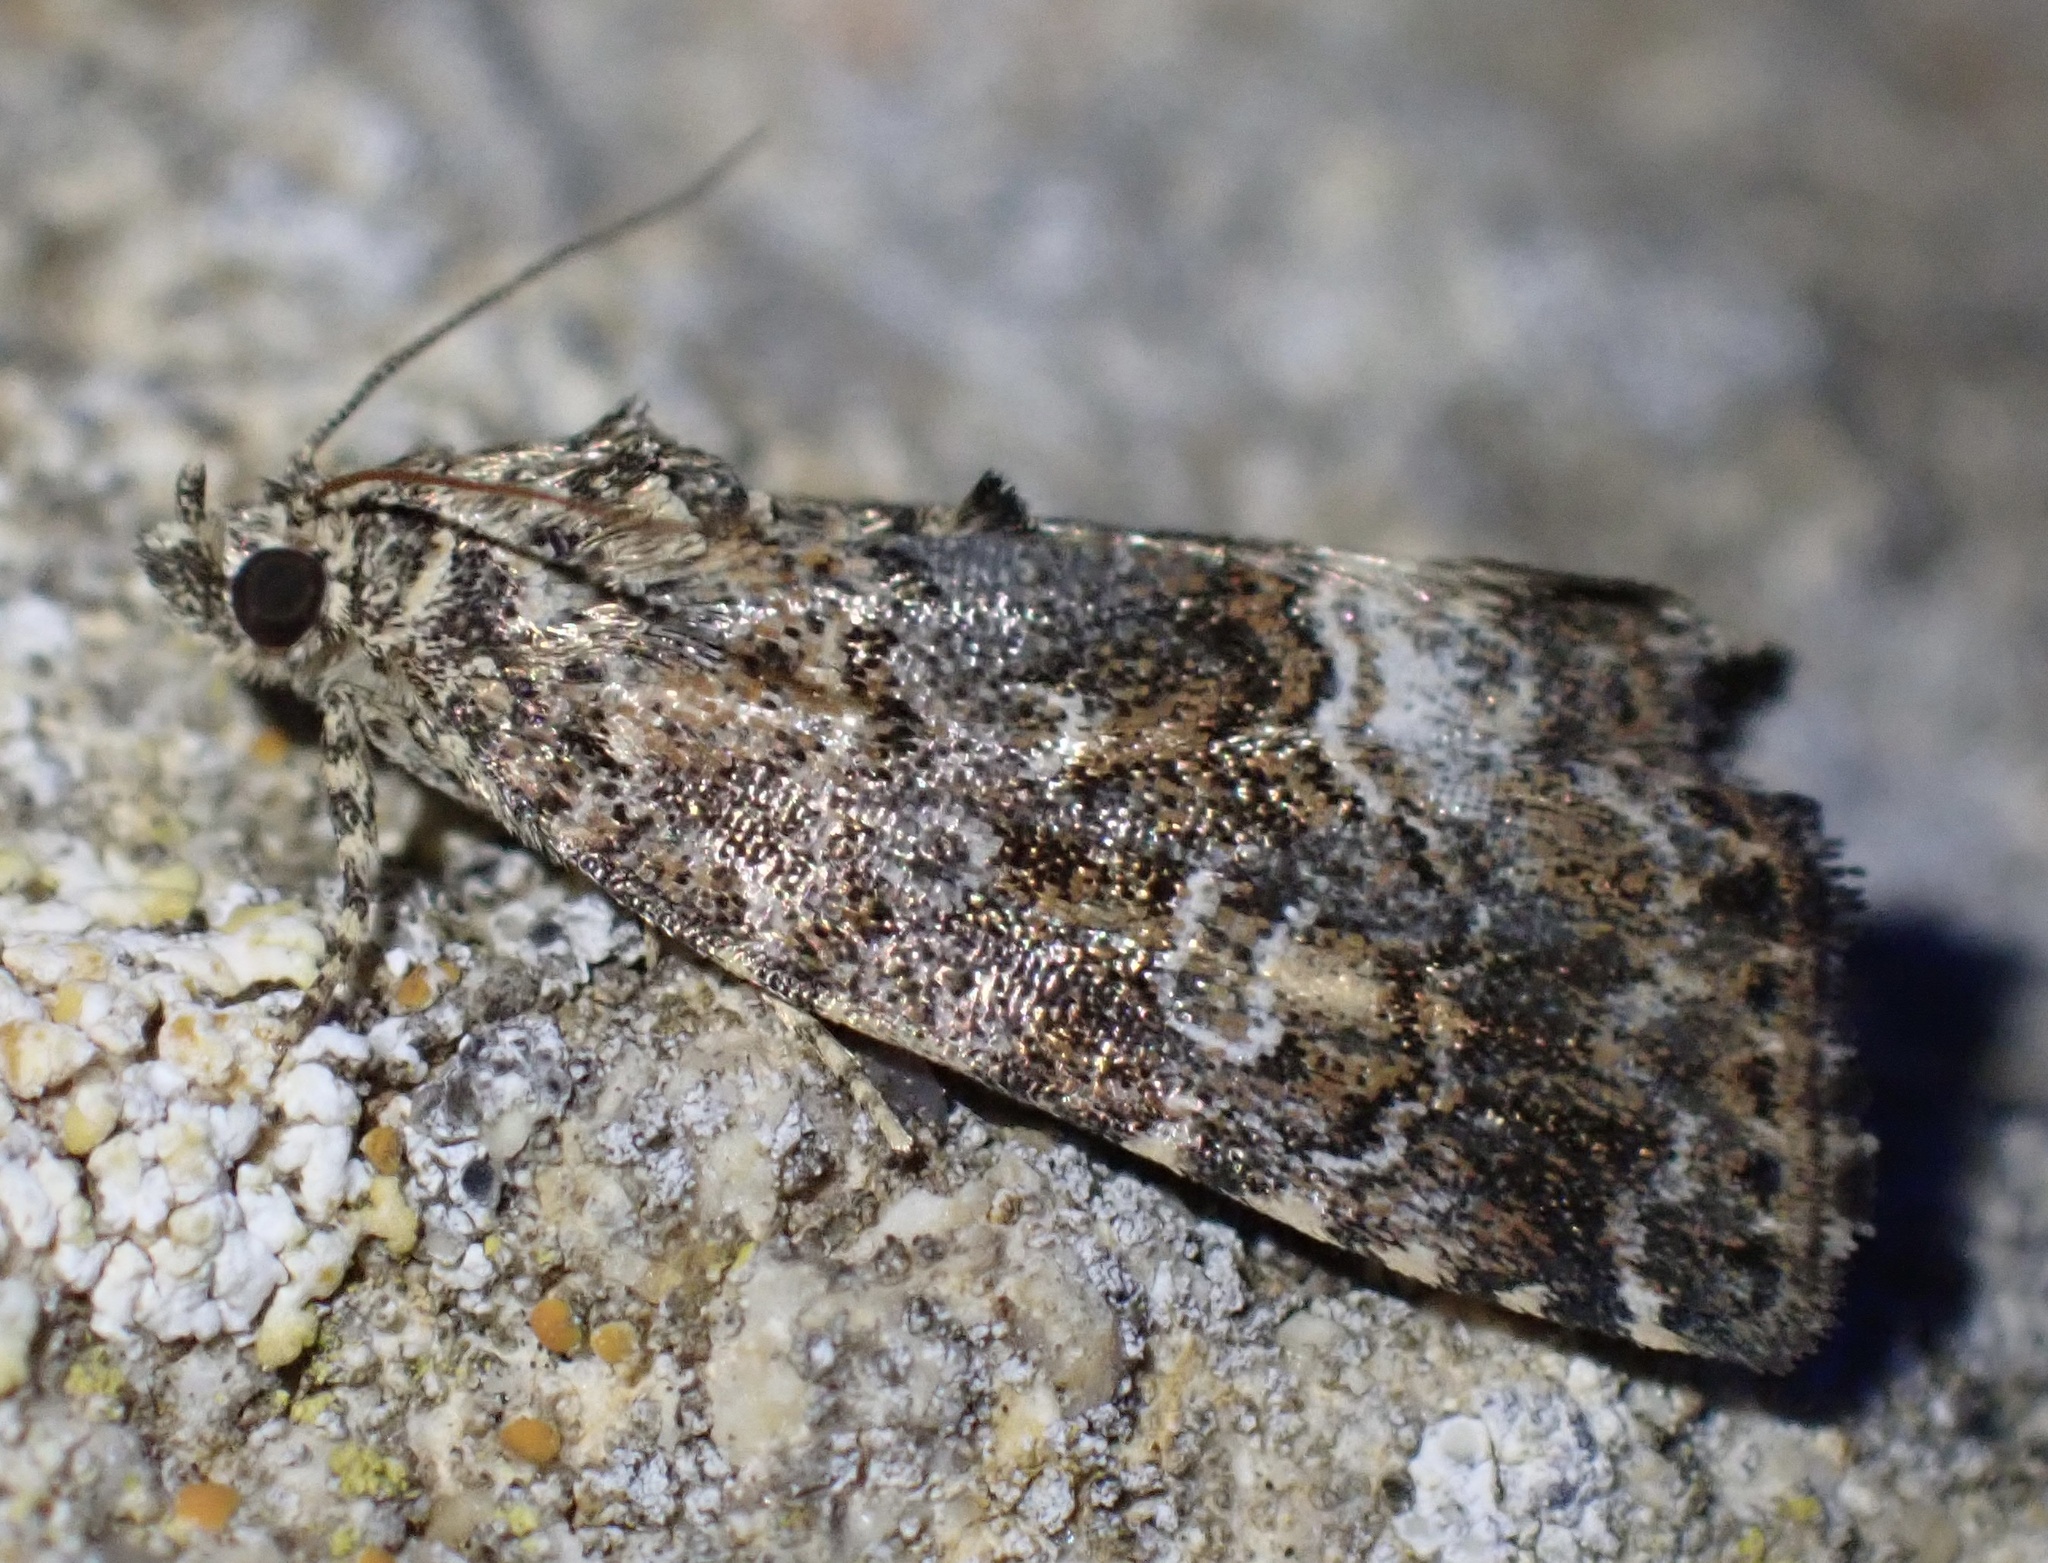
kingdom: Animalia
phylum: Arthropoda
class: Insecta
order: Lepidoptera
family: Noctuidae
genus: Deltote
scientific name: Deltote pygarga
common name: Marbled white spot
